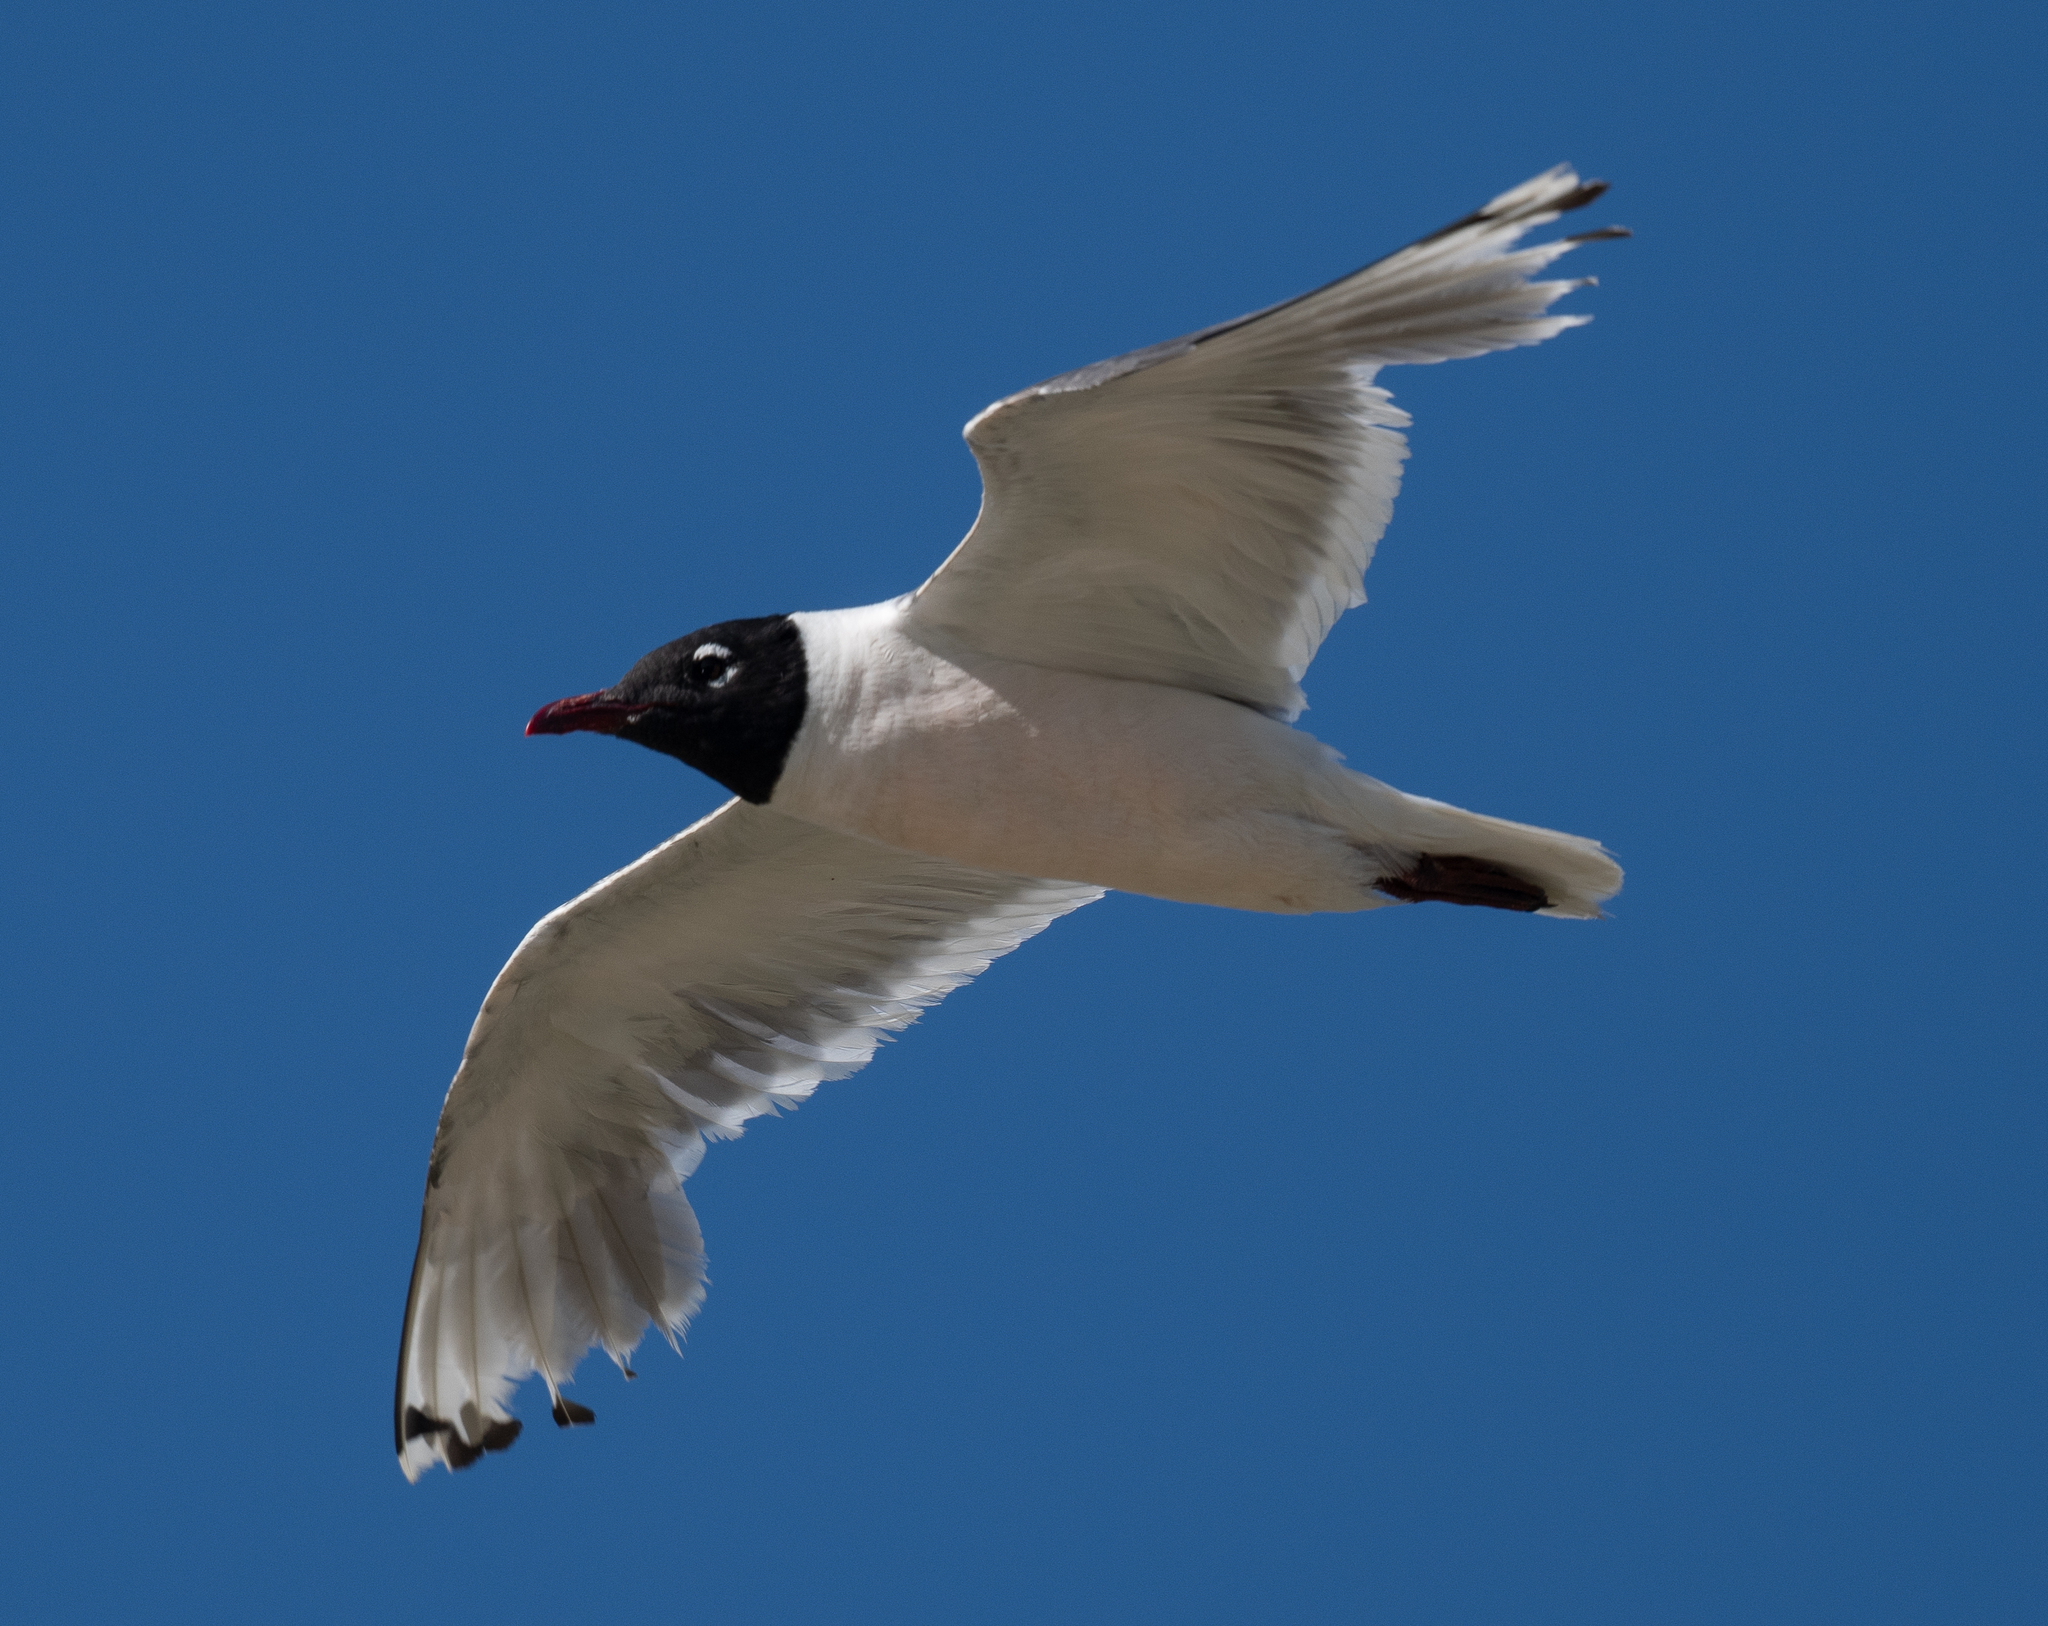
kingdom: Animalia
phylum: Chordata
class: Aves
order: Charadriiformes
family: Laridae
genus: Leucophaeus
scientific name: Leucophaeus pipixcan
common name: Franklin's gull
